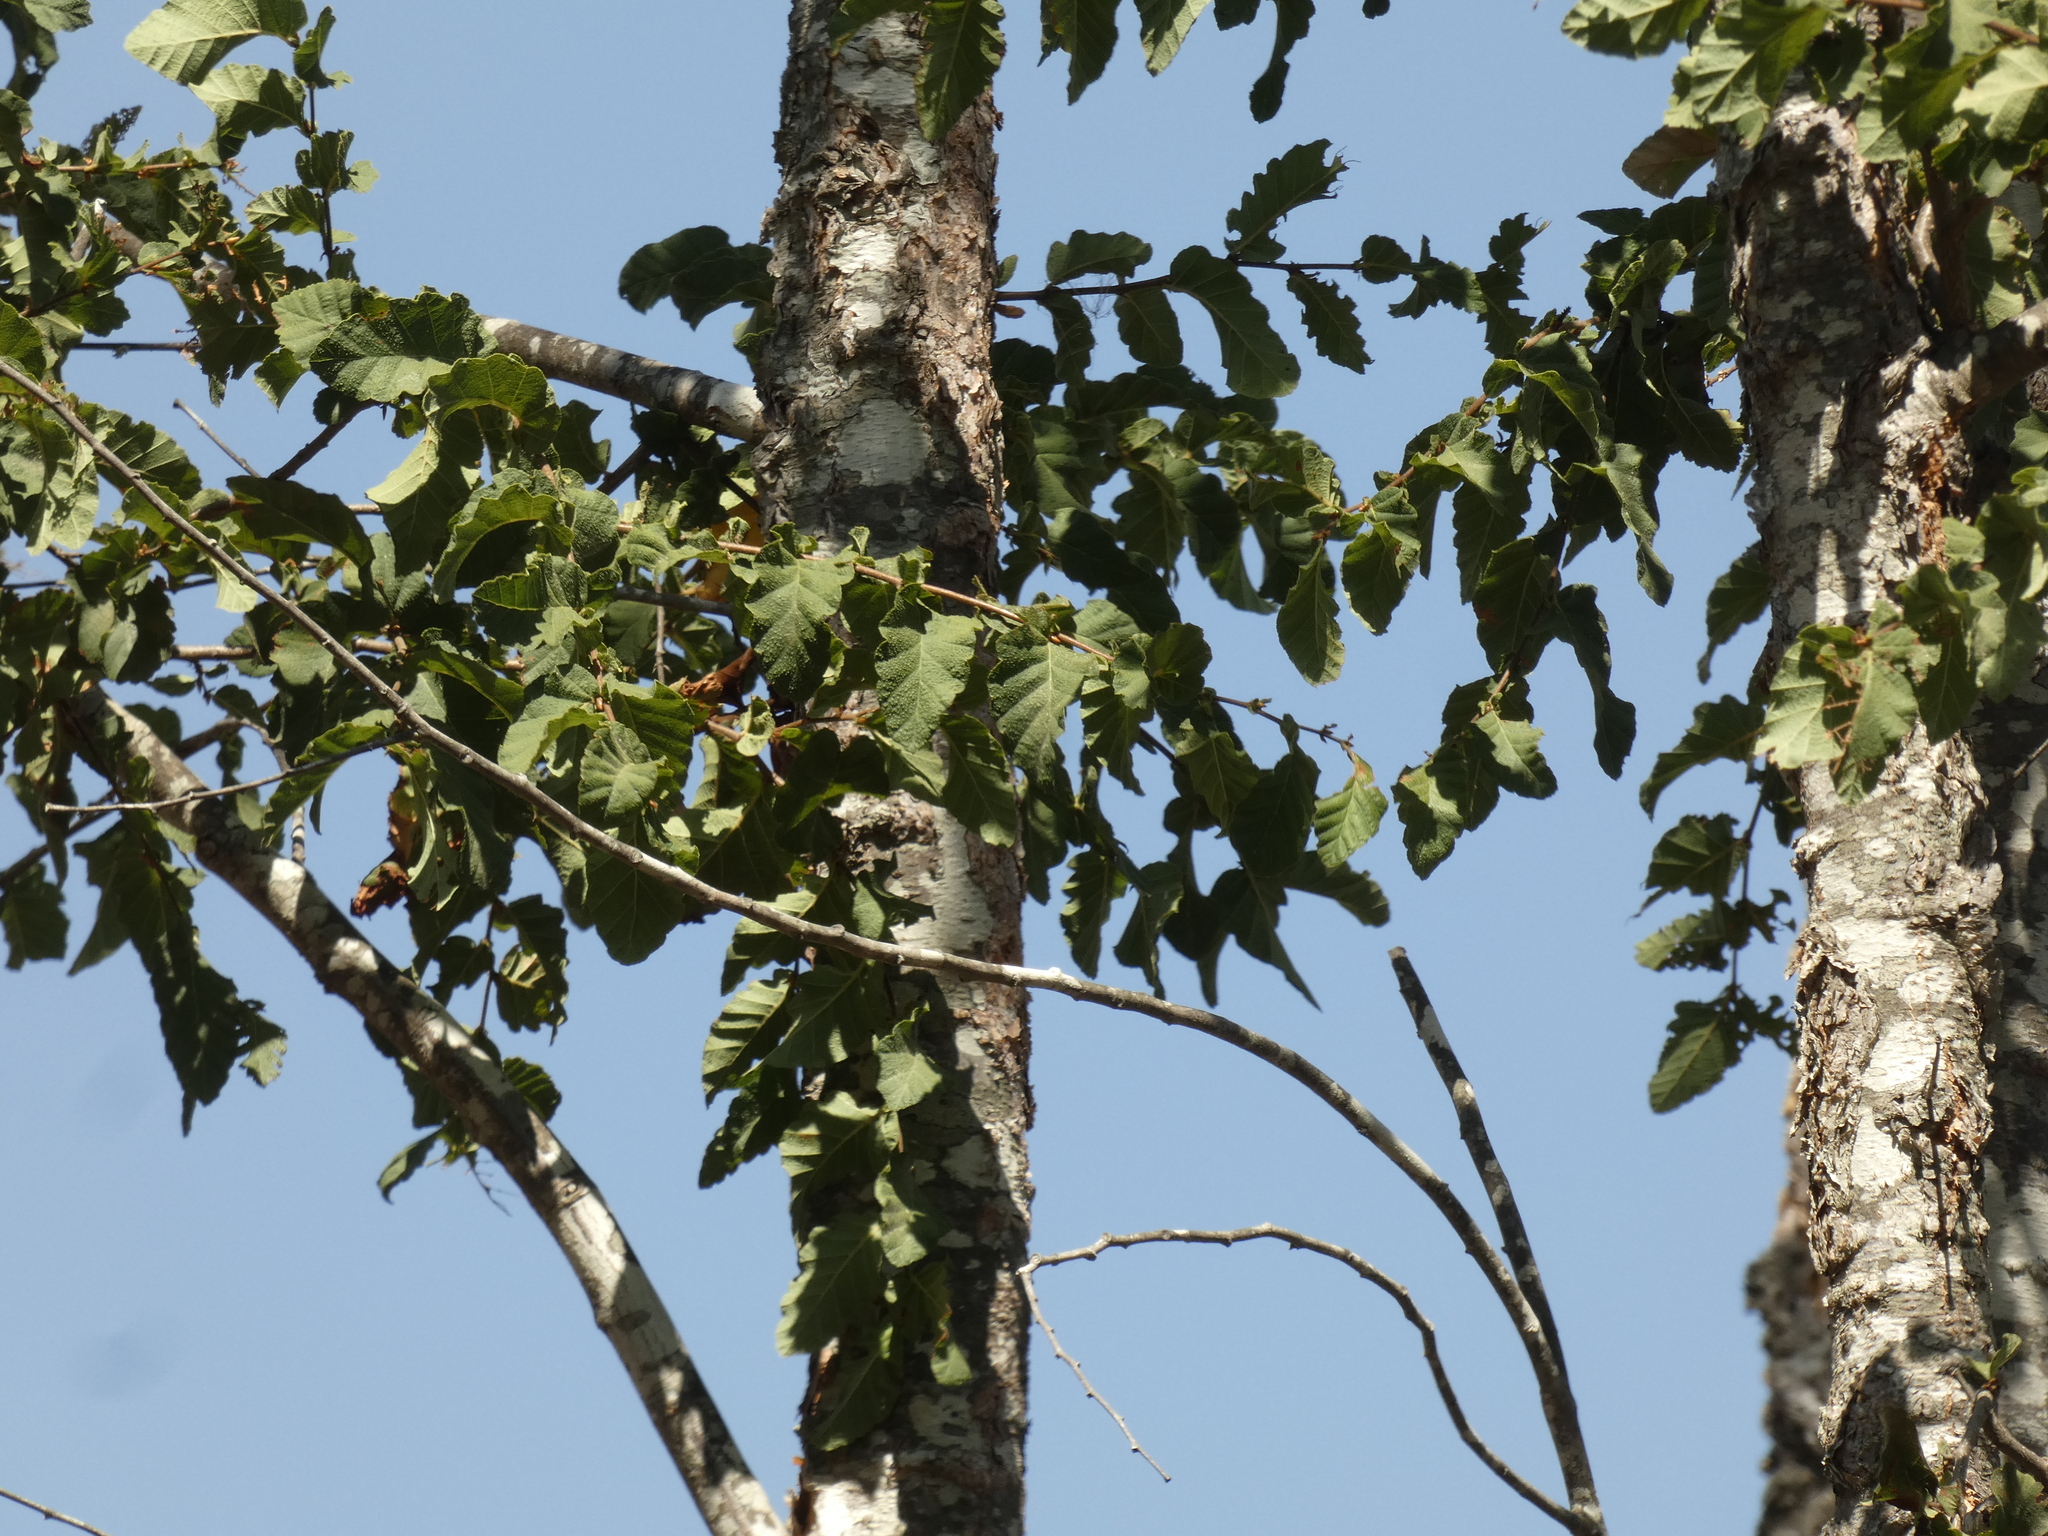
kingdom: Plantae
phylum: Tracheophyta
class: Magnoliopsida
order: Fagales
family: Nothofagaceae
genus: Nothofagus
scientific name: Nothofagus glauca
